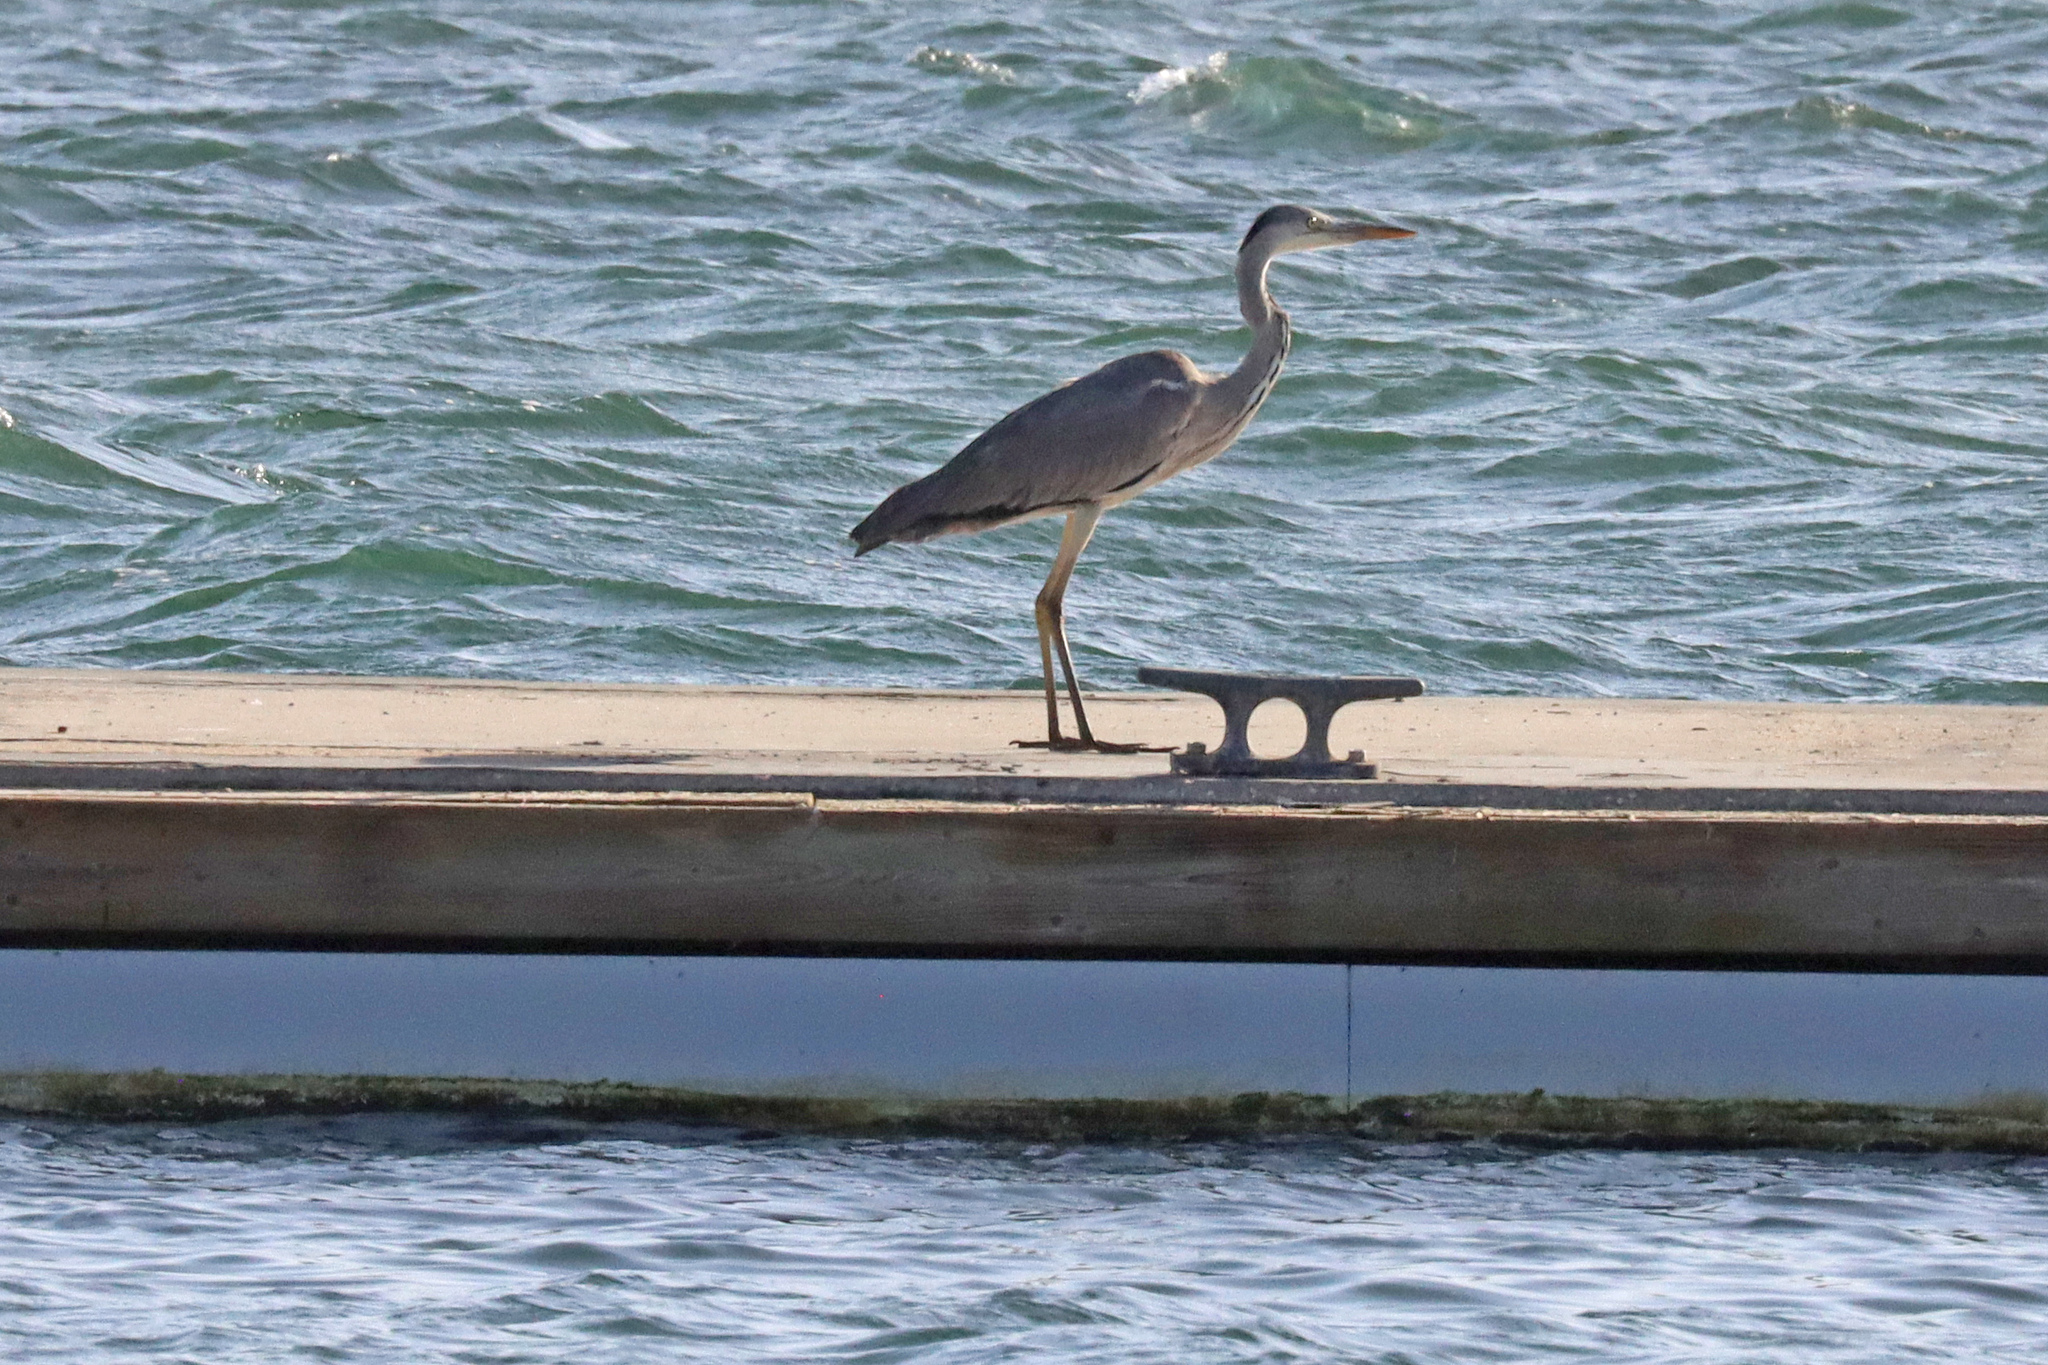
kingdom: Animalia
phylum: Chordata
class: Aves
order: Pelecaniformes
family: Ardeidae
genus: Ardea
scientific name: Ardea cinerea
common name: Grey heron
